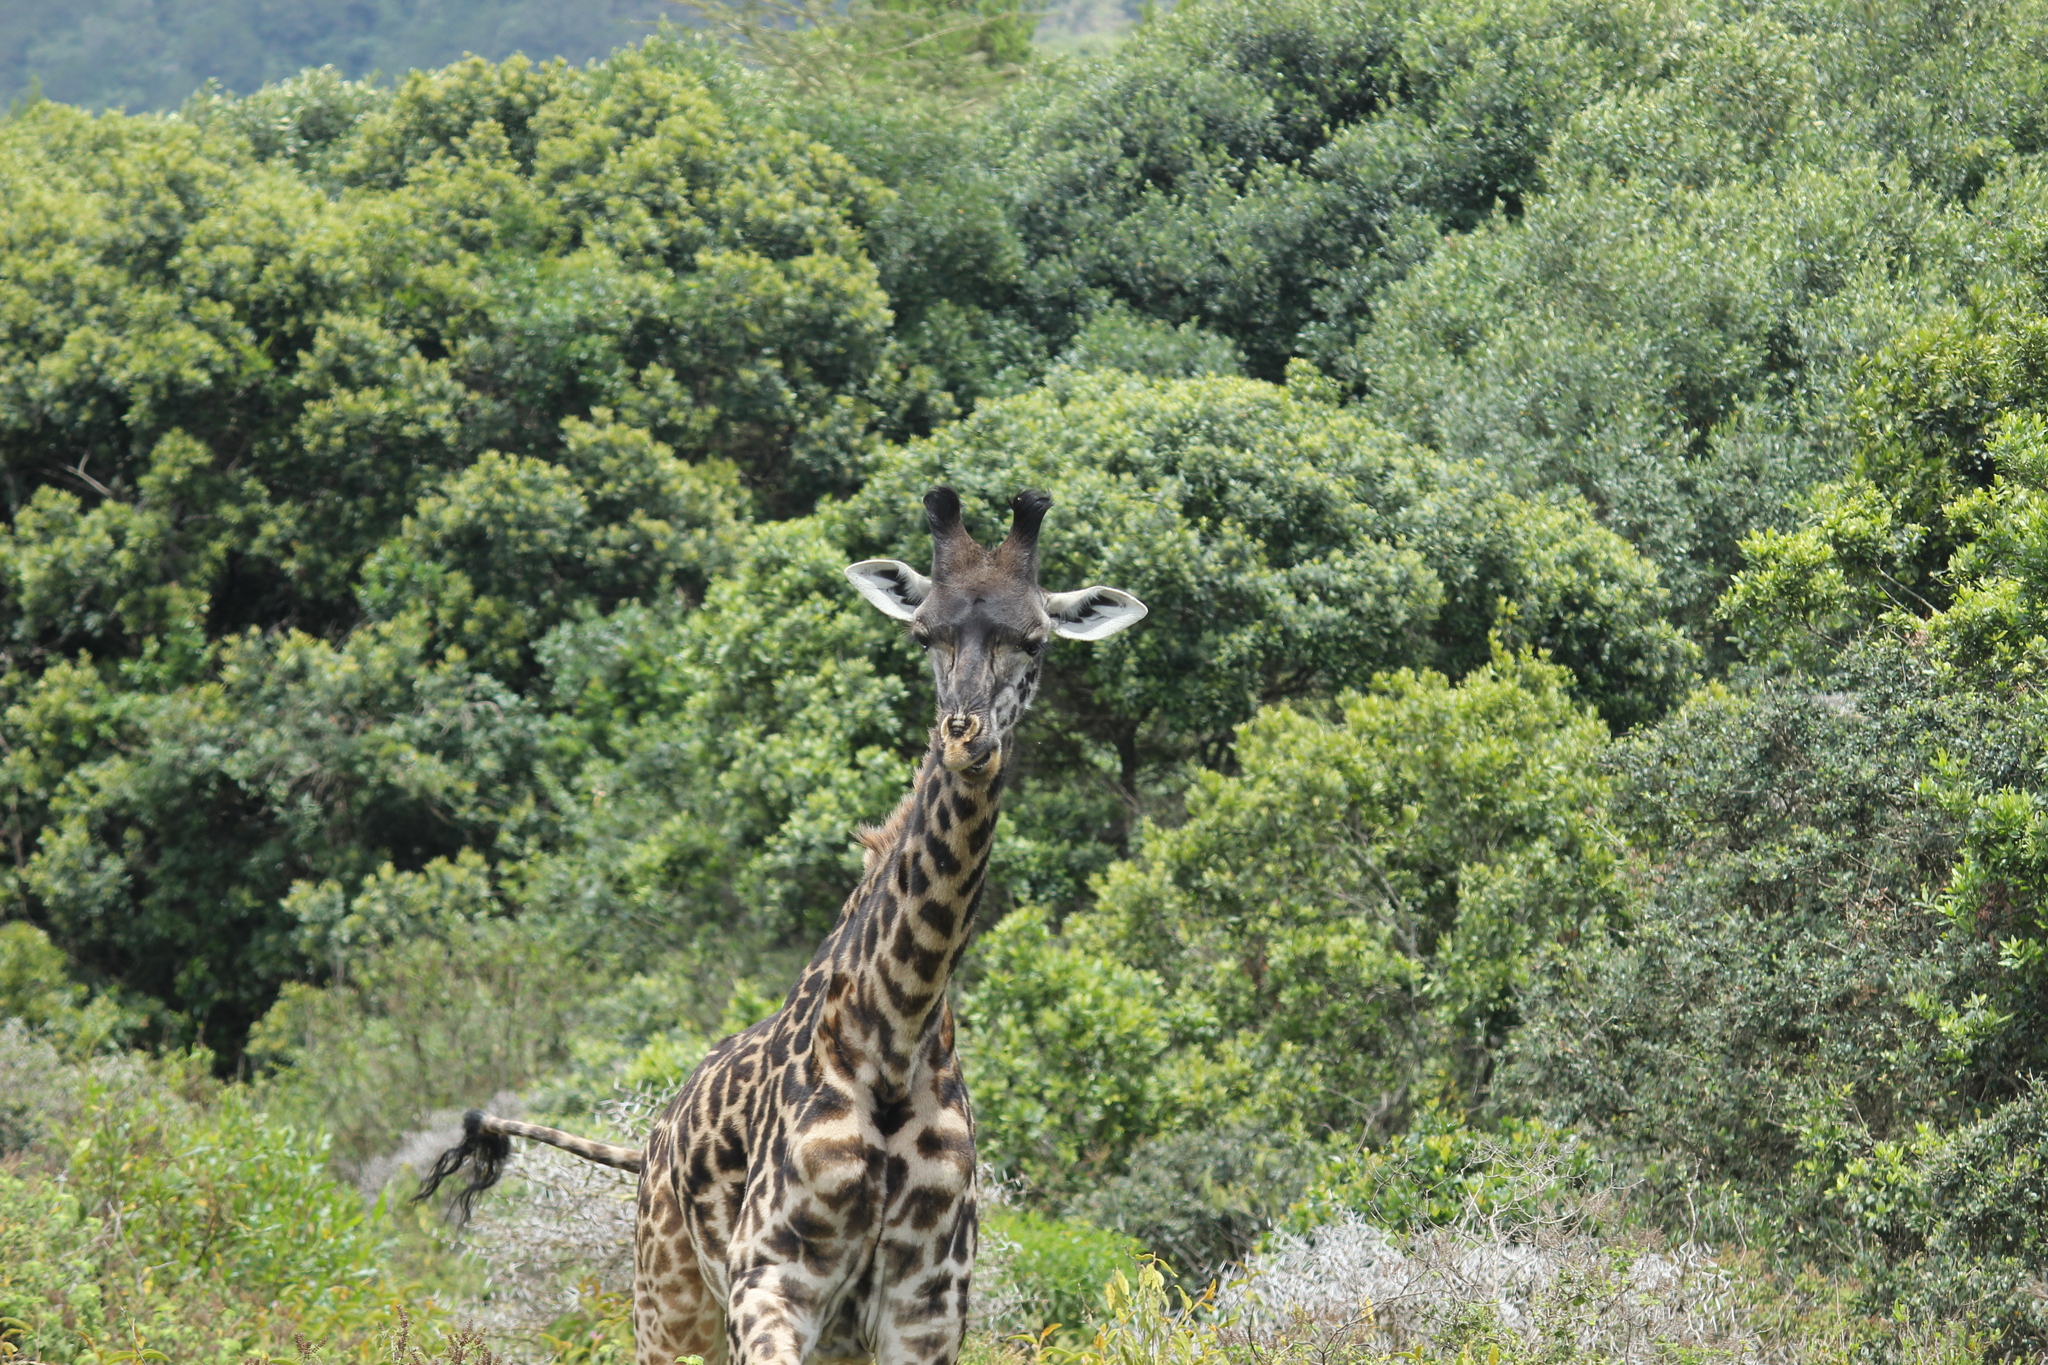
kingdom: Animalia
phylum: Chordata
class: Mammalia
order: Artiodactyla
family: Giraffidae
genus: Giraffa
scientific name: Giraffa tippelskirchi
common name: Masai giraffe
